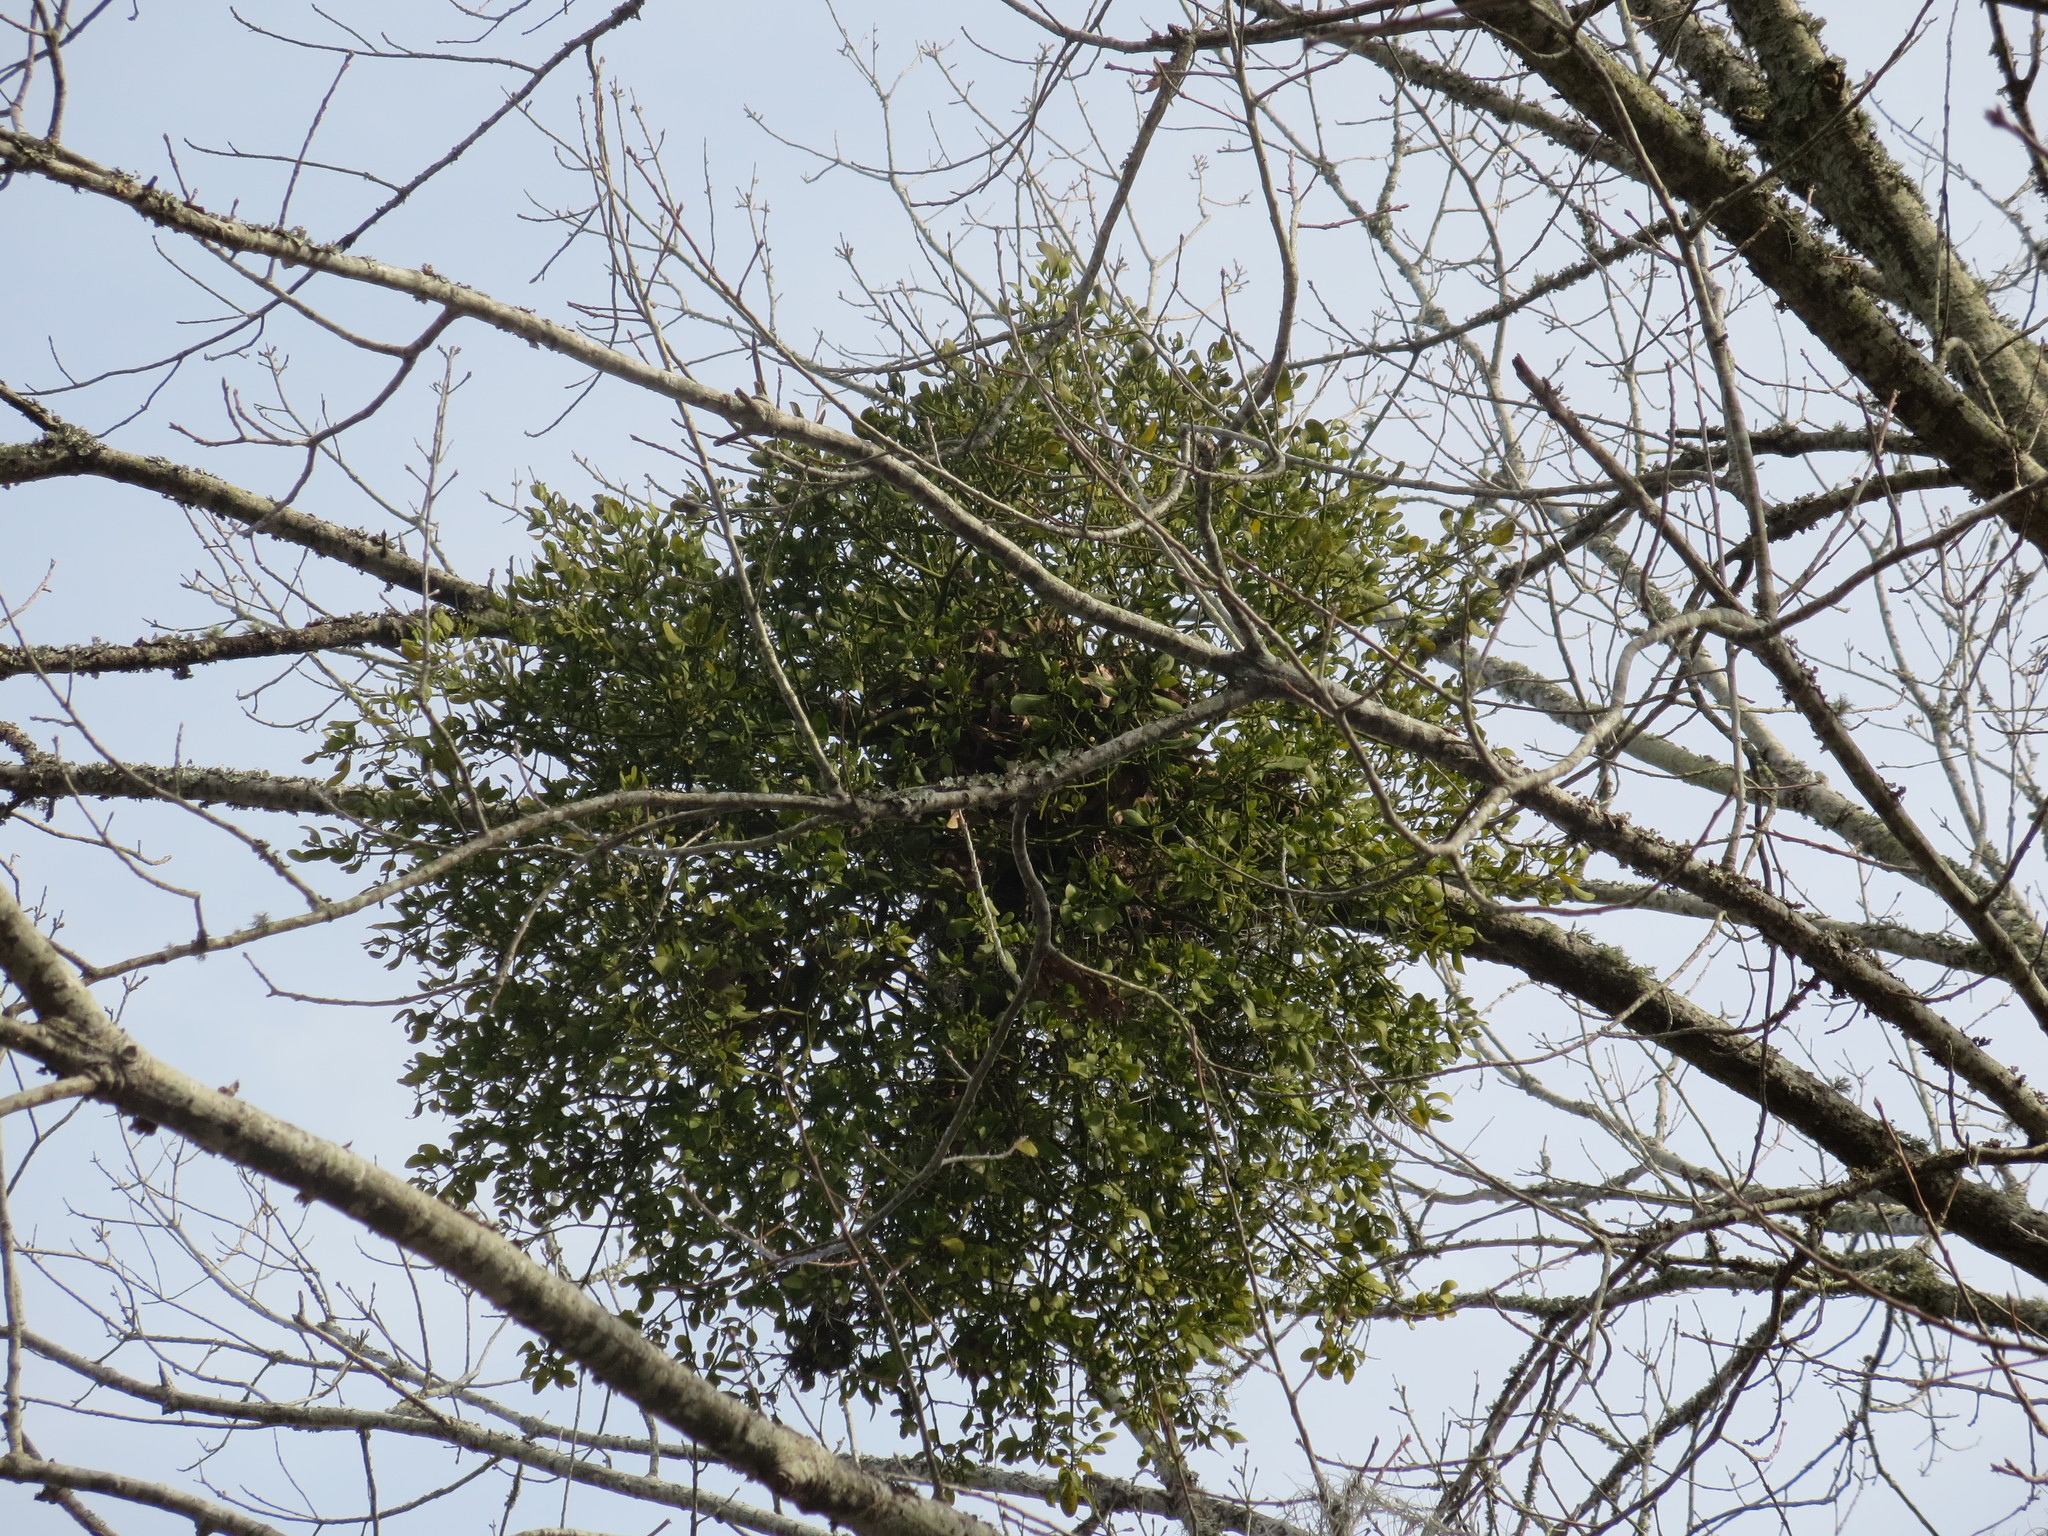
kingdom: Plantae
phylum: Tracheophyta
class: Magnoliopsida
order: Santalales
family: Viscaceae
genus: Phoradendron
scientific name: Phoradendron leucarpum
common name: Pacific mistletoe
